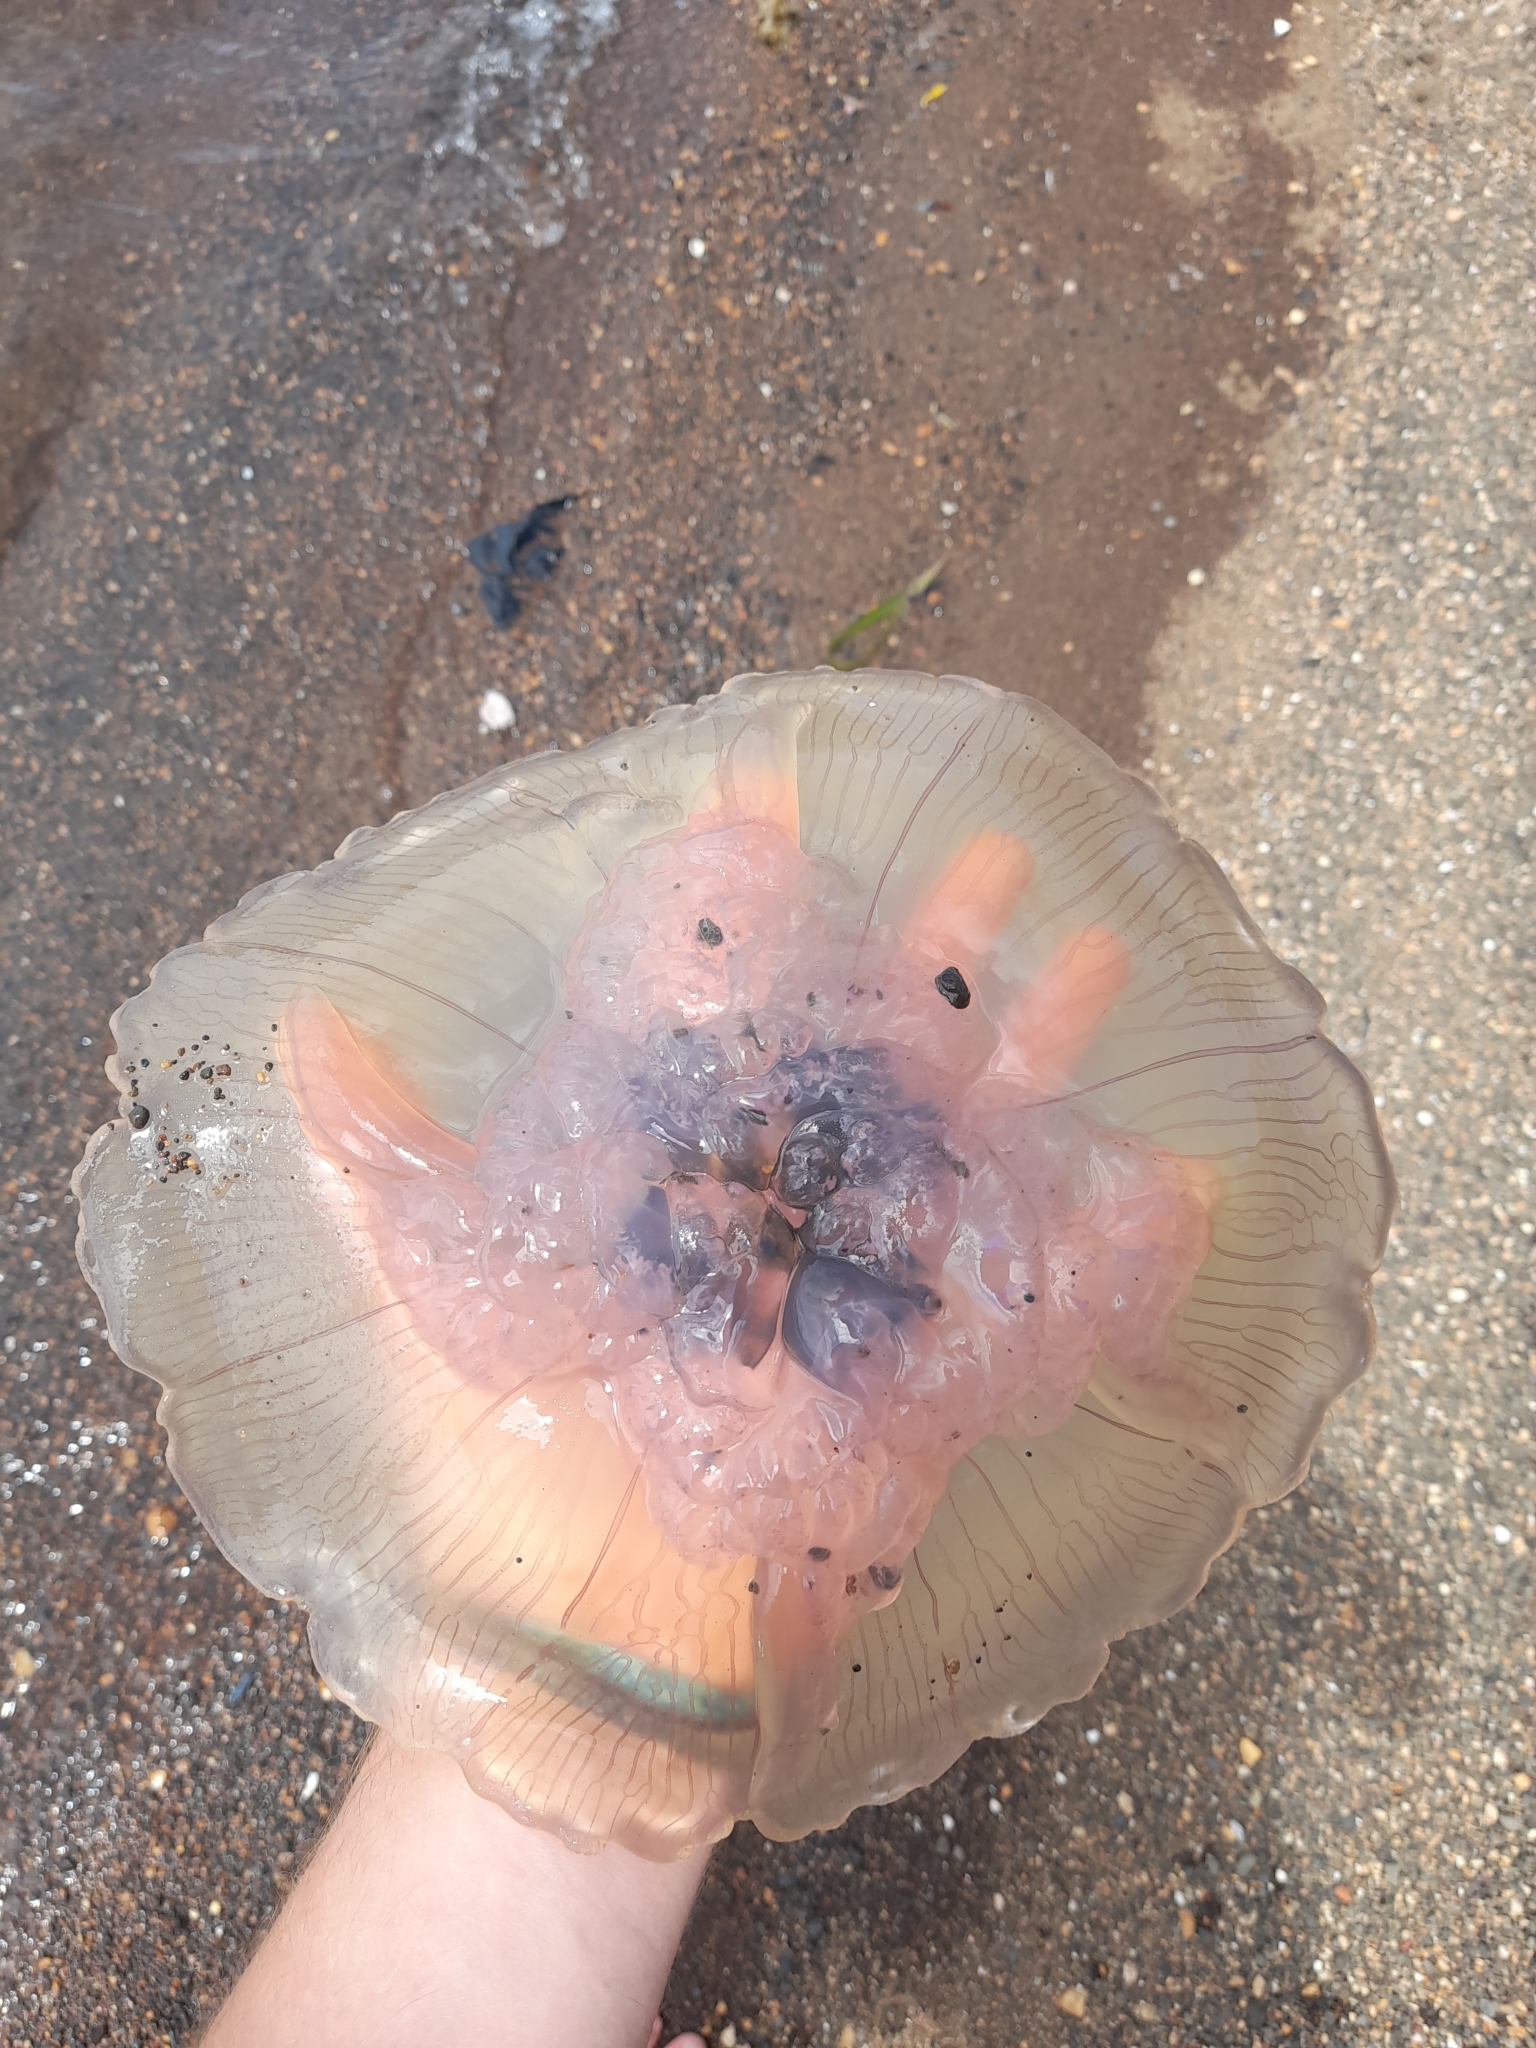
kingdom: Animalia
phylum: Cnidaria
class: Scyphozoa
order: Semaeostomeae
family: Ulmaridae
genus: Aurelia
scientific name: Aurelia
